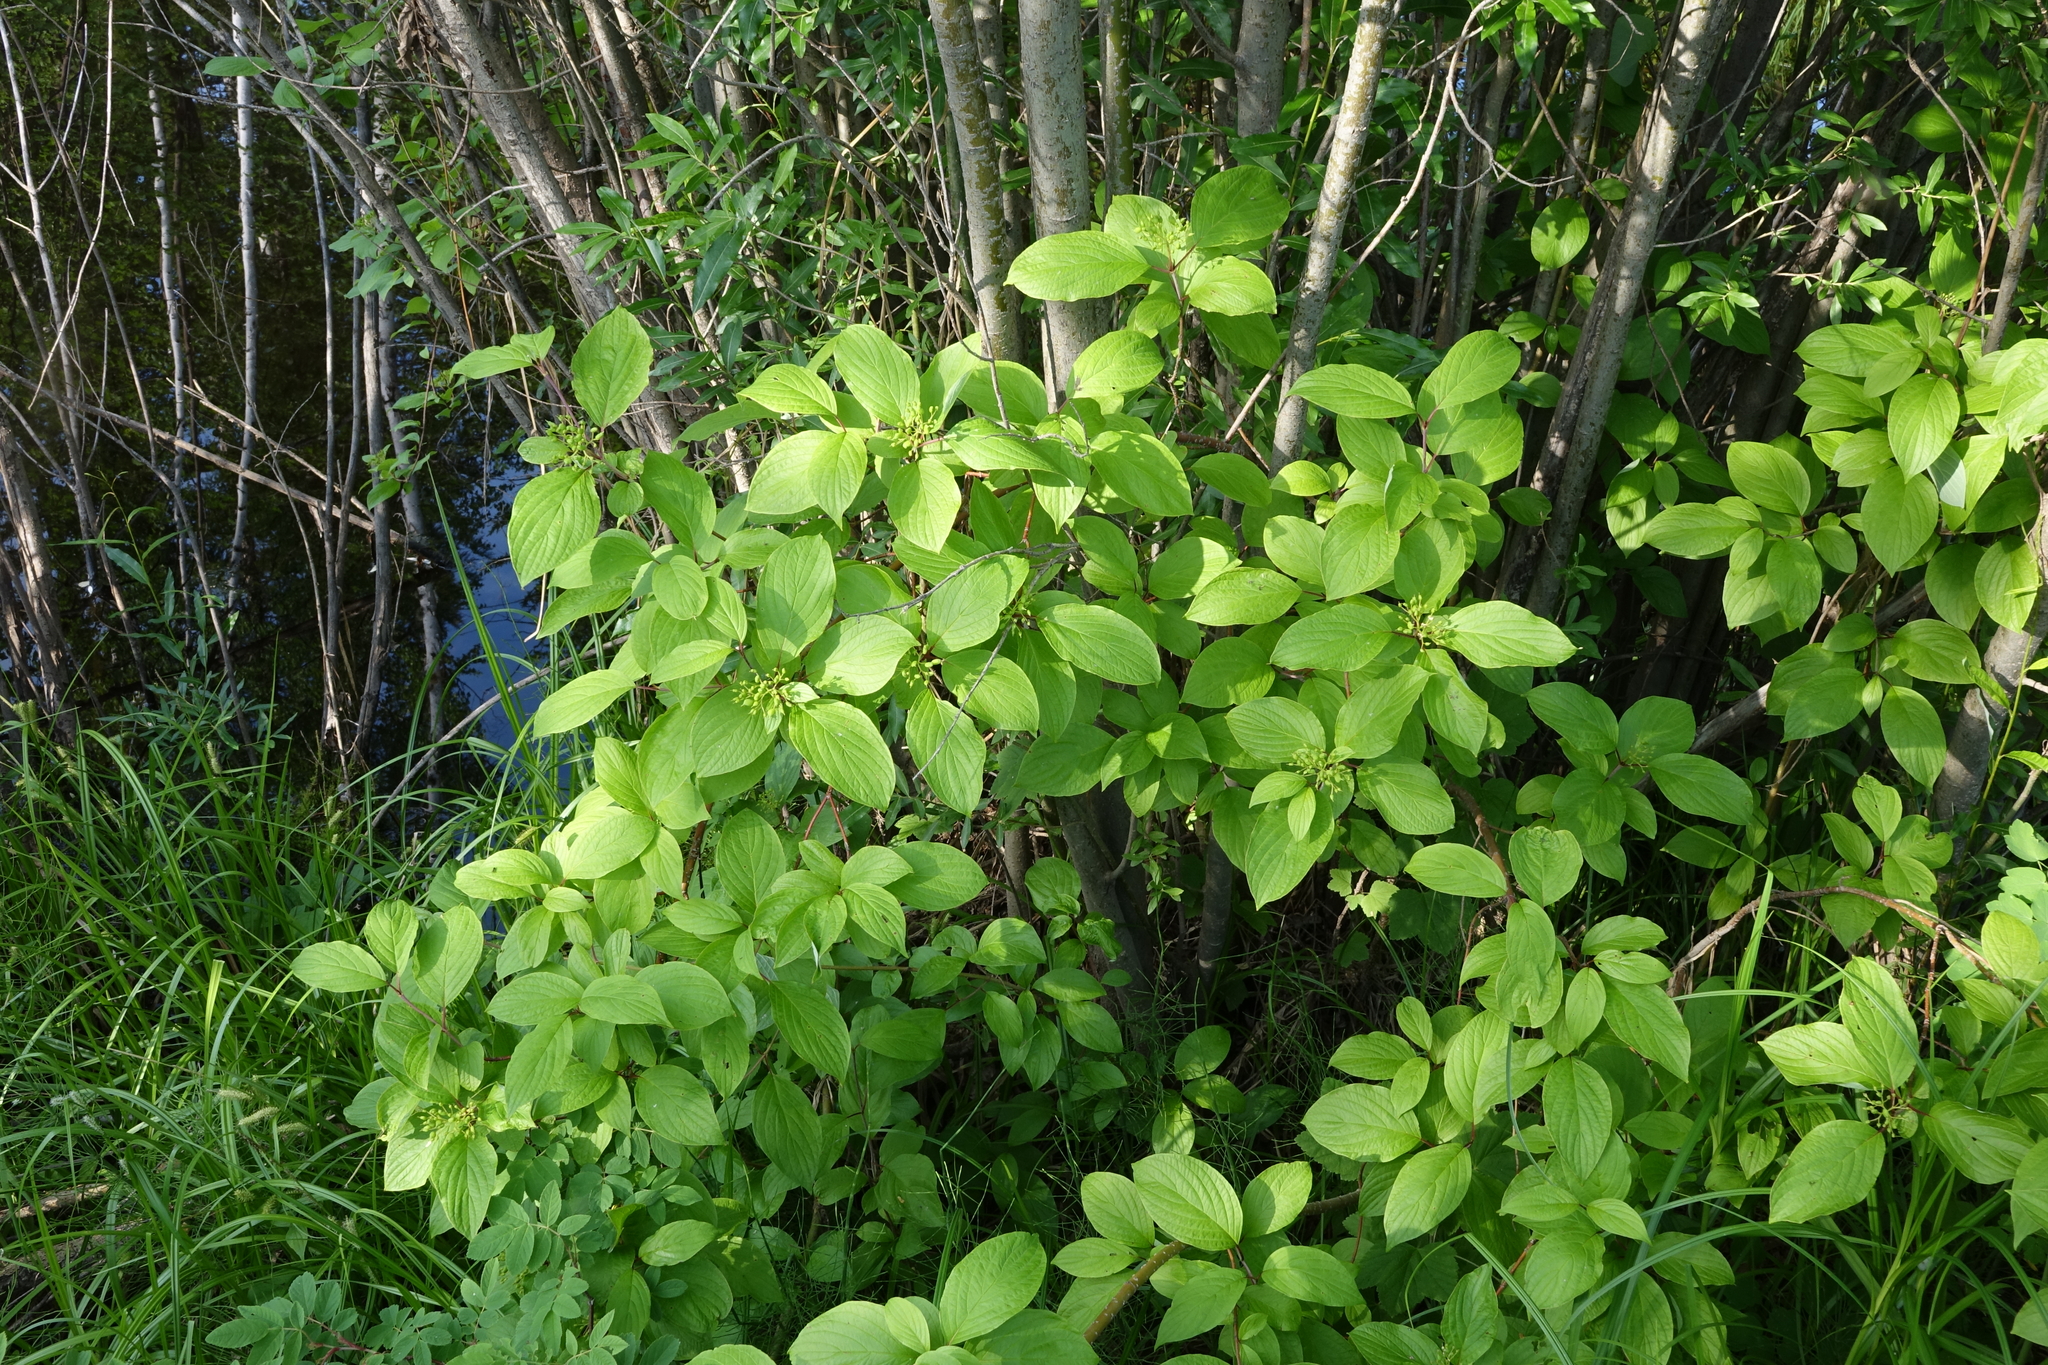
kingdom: Plantae
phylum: Tracheophyta
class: Magnoliopsida
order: Cornales
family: Cornaceae
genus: Cornus
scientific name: Cornus alba
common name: White dogwood
